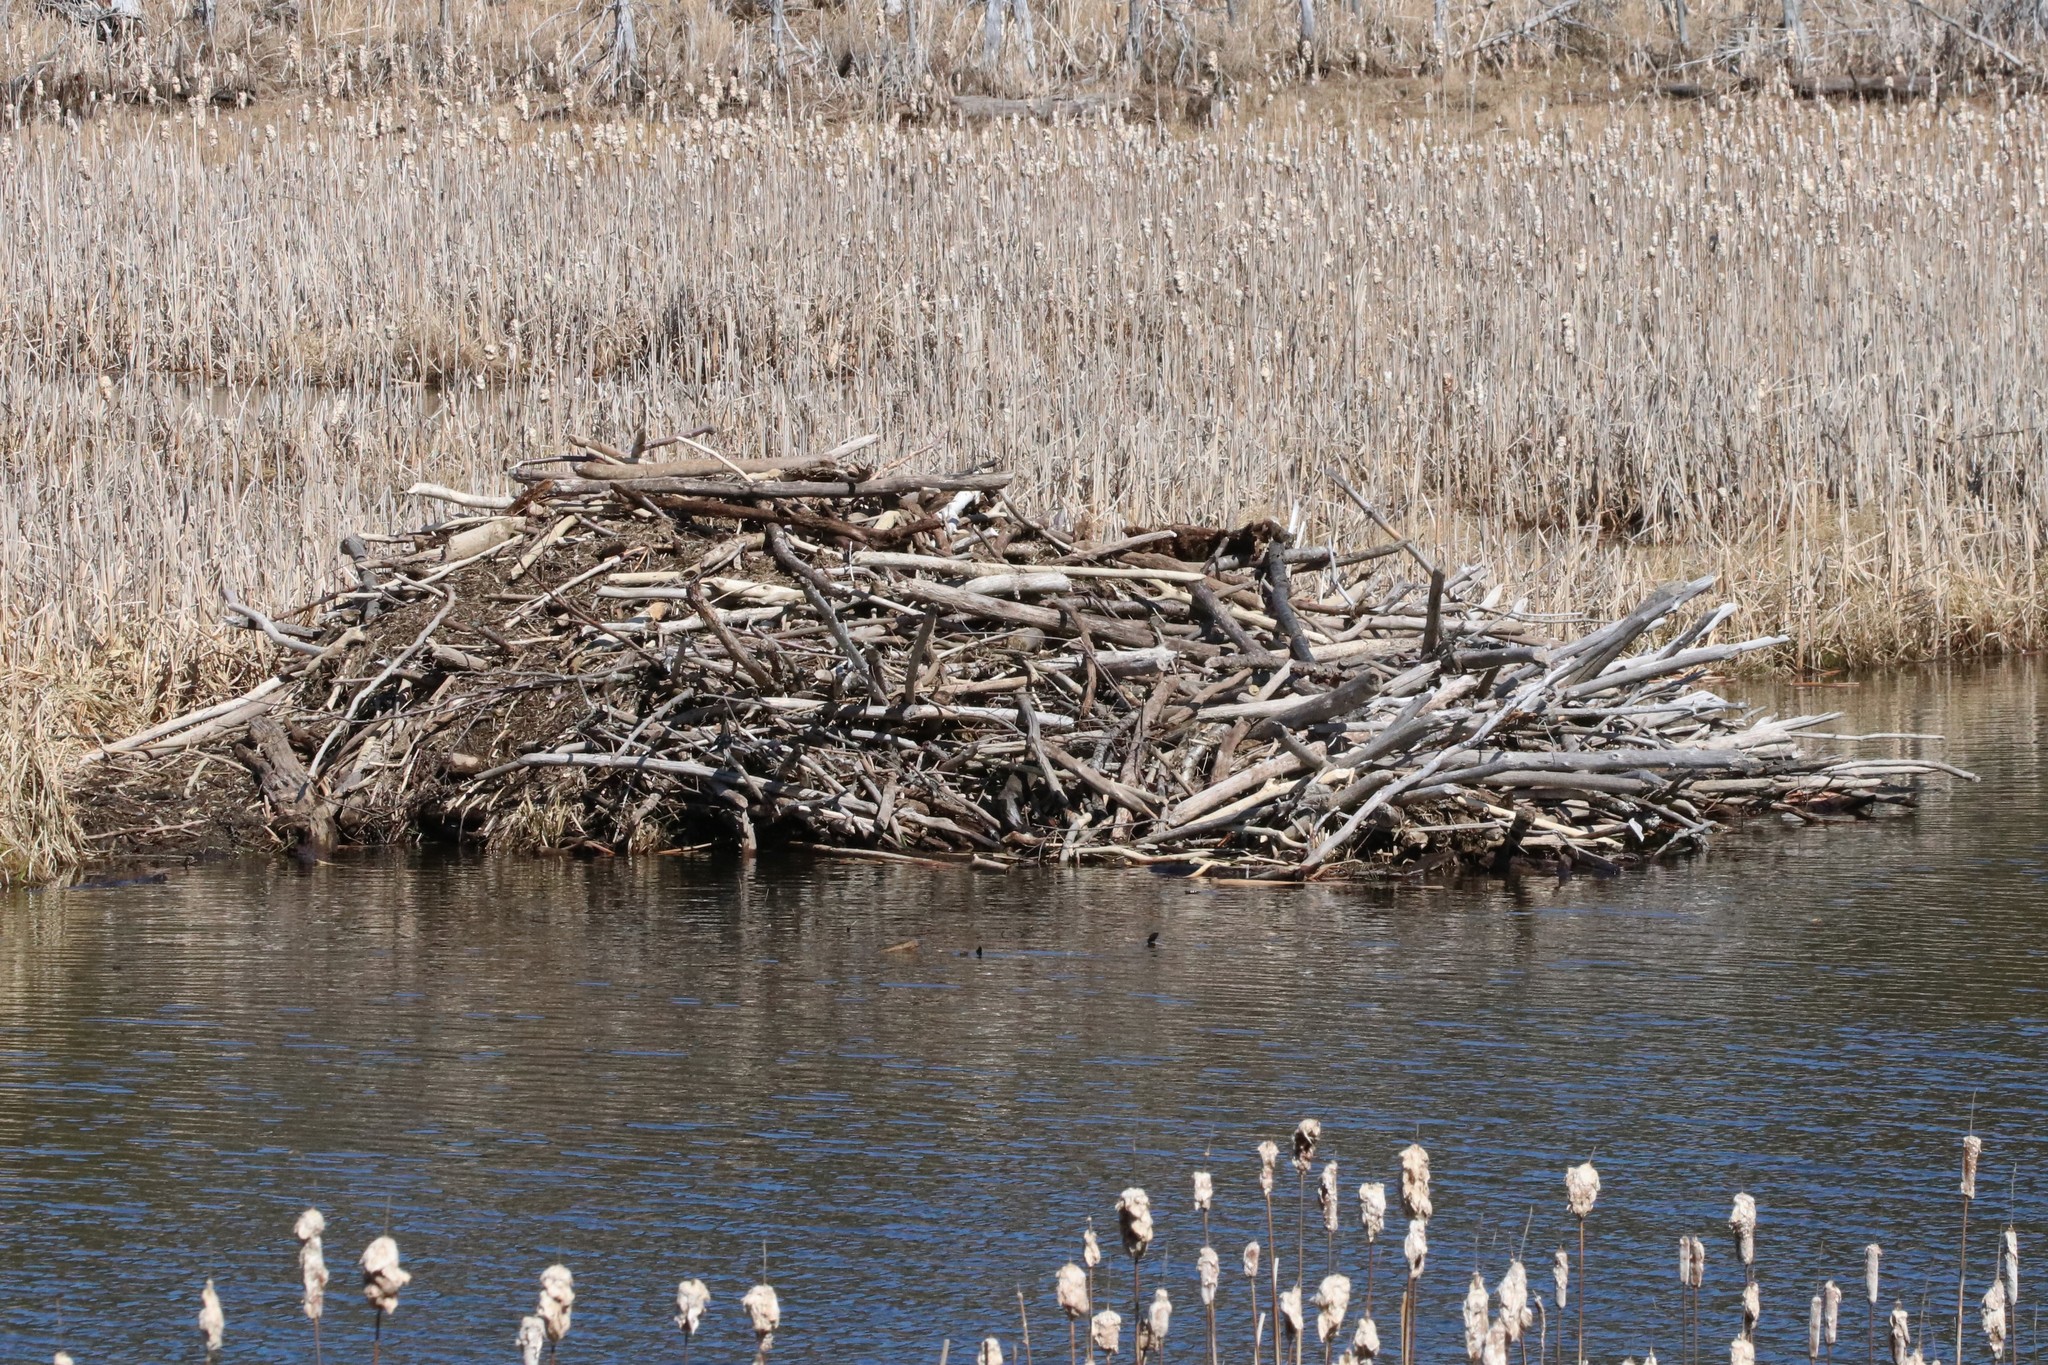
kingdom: Animalia
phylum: Chordata
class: Mammalia
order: Rodentia
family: Castoridae
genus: Castor
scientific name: Castor canadensis
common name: American beaver
